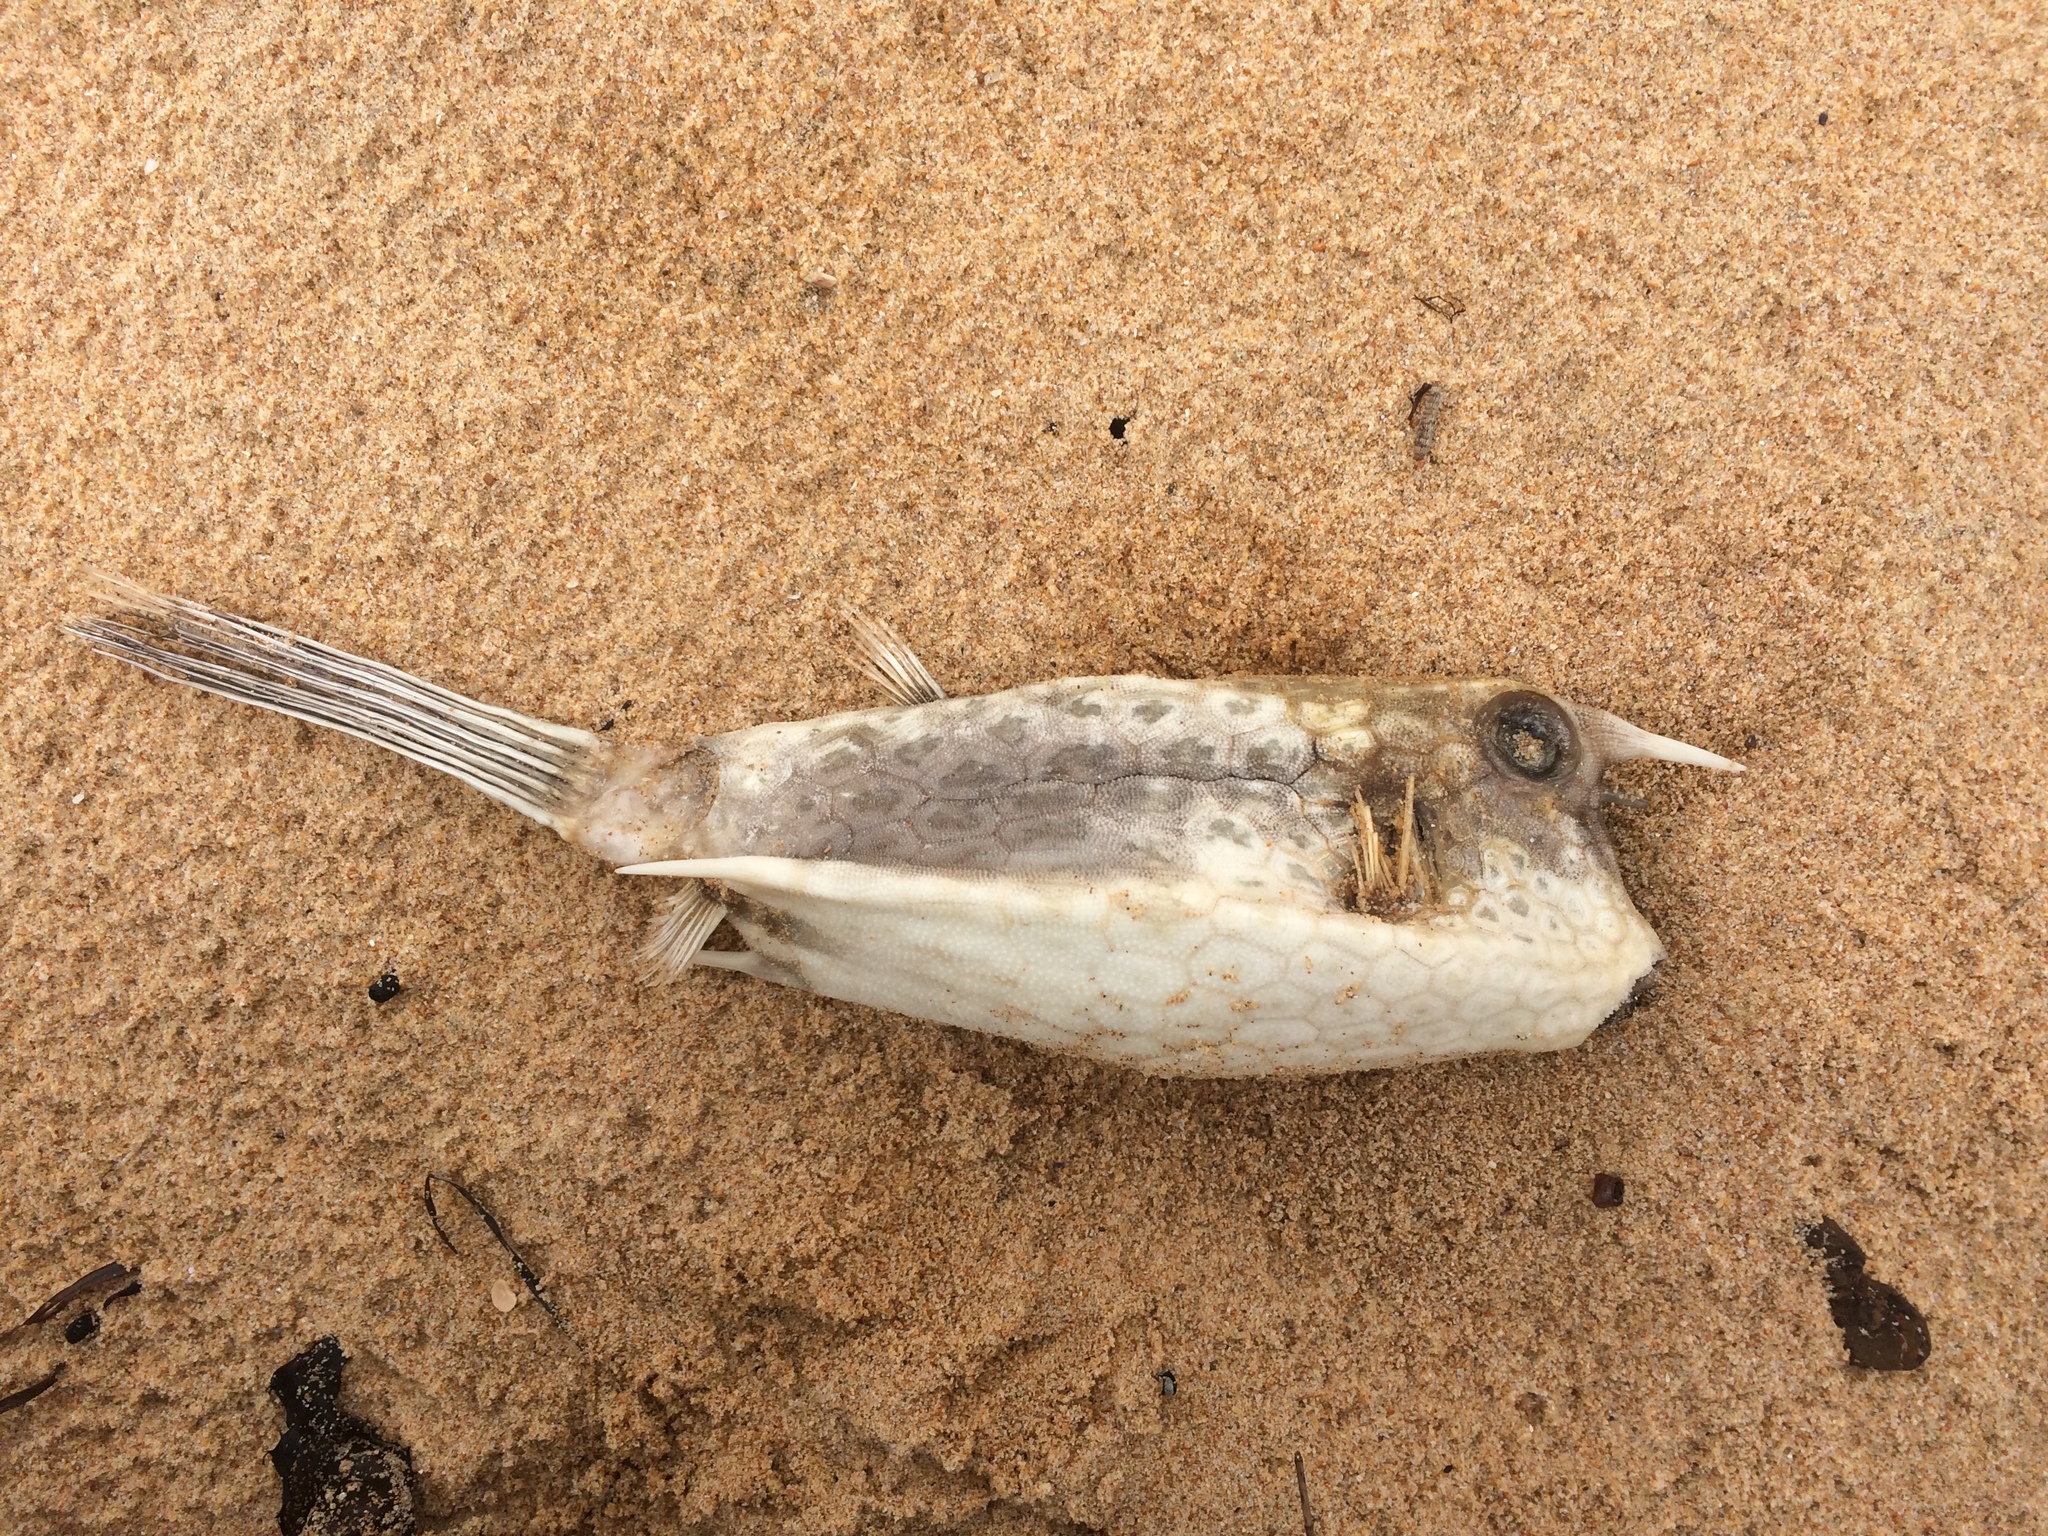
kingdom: Animalia
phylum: Chordata
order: Tetraodontiformes
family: Ostraciidae
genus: Lactoria
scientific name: Lactoria cornuta
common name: Longhorn cowfish
